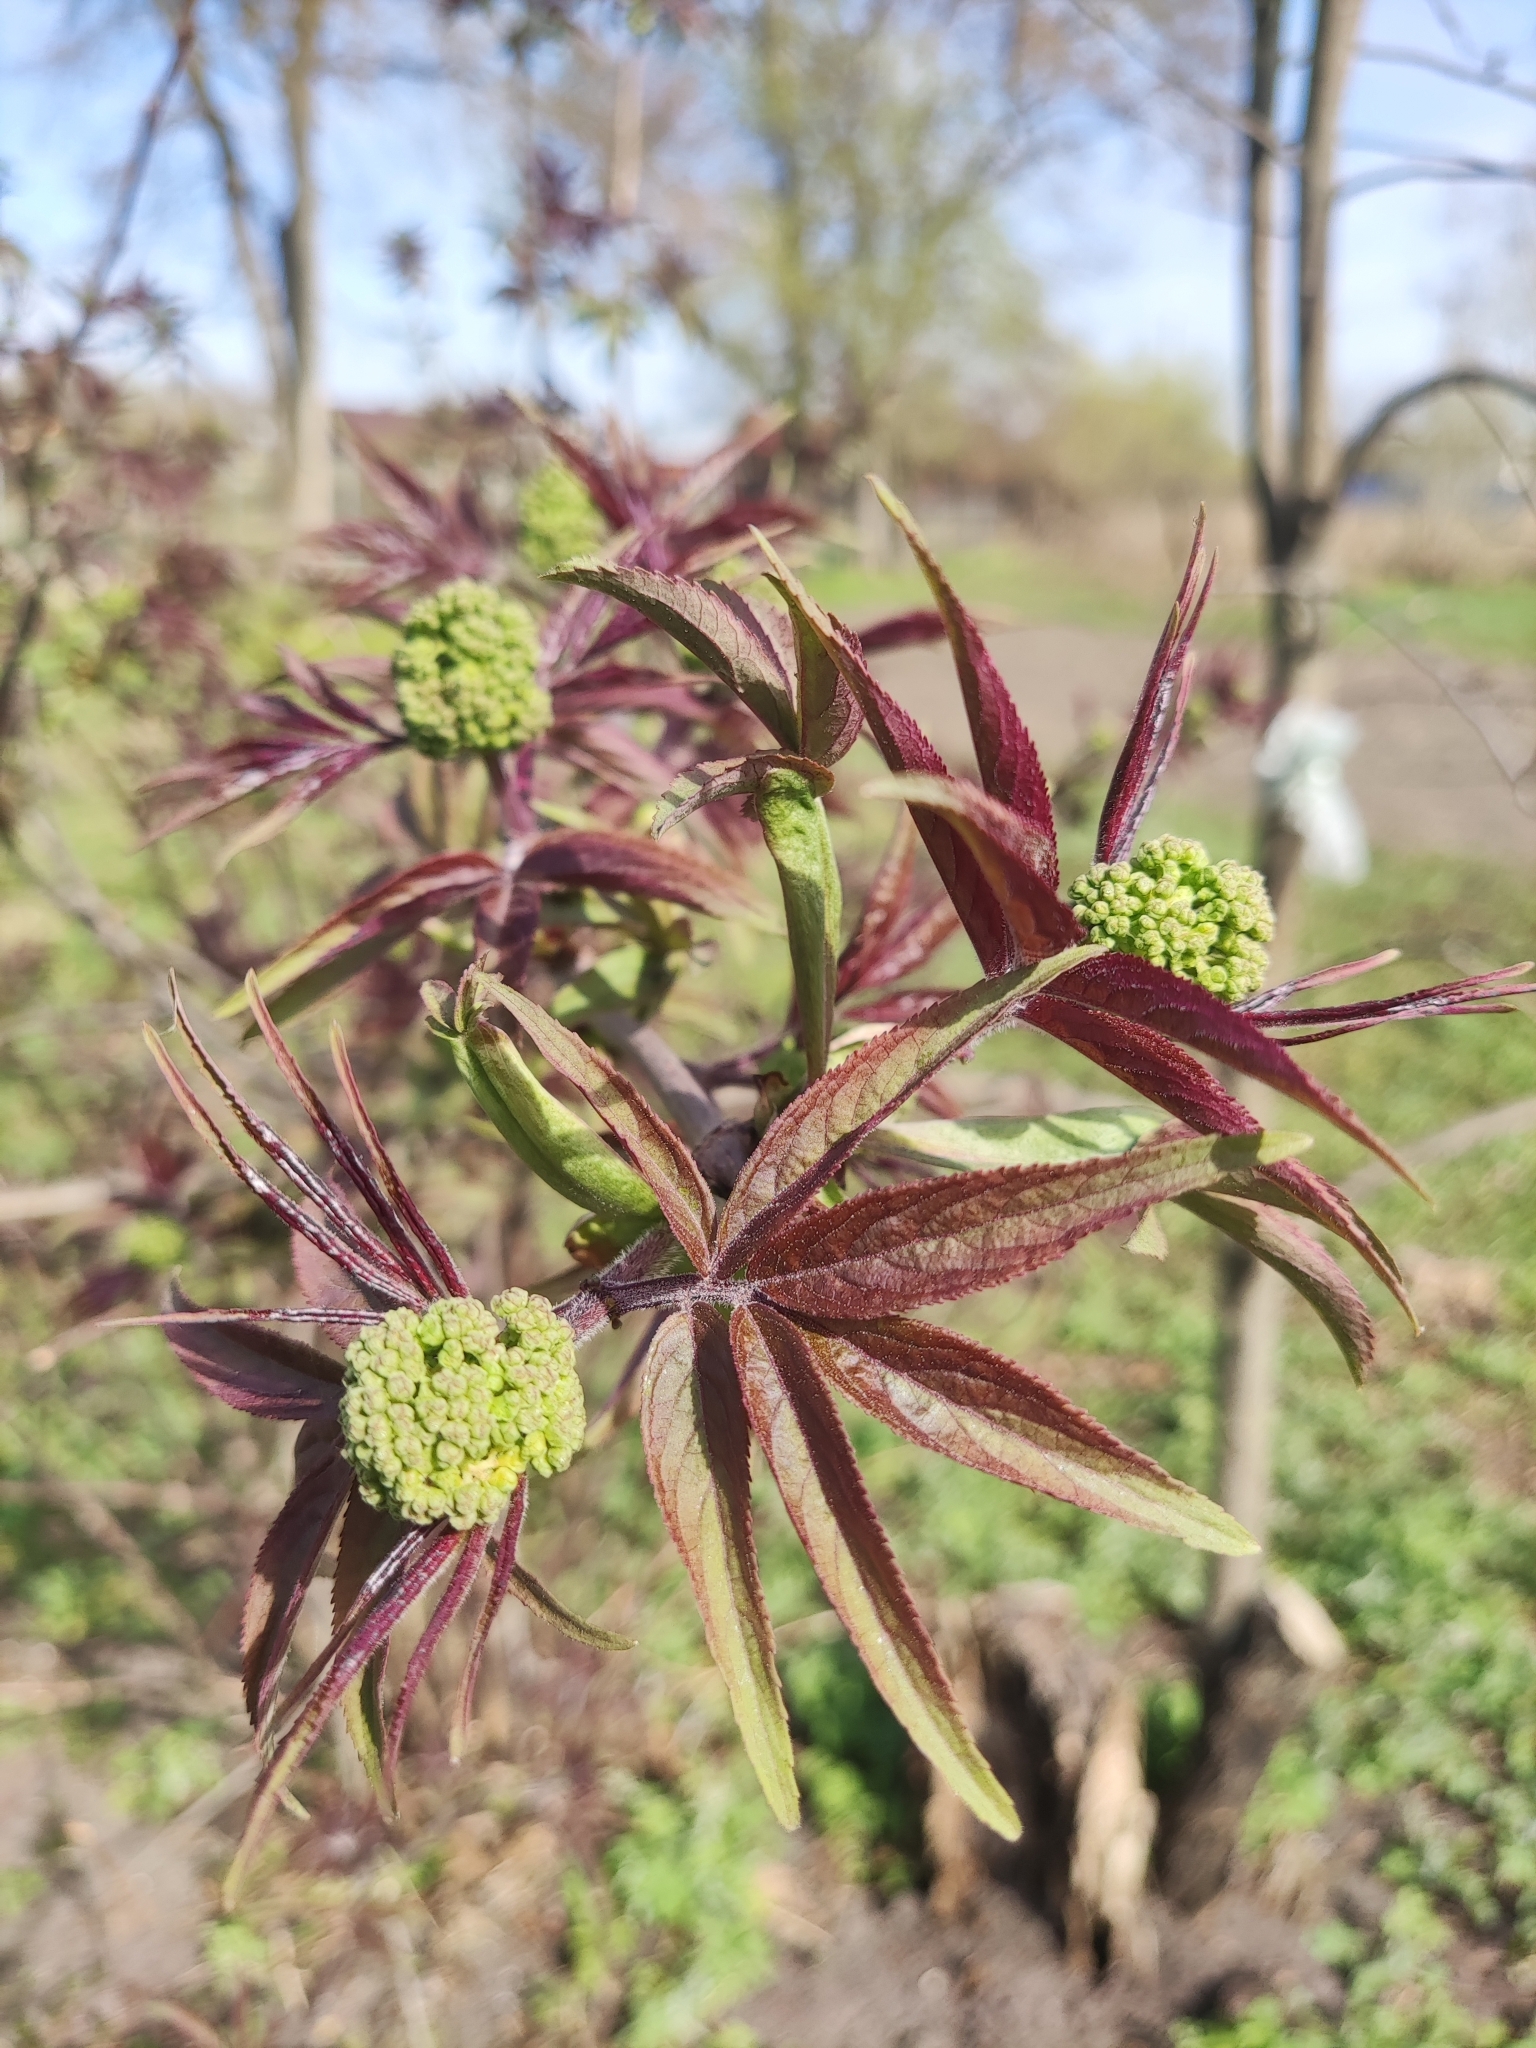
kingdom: Plantae
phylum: Tracheophyta
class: Magnoliopsida
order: Dipsacales
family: Viburnaceae
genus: Sambucus
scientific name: Sambucus racemosa
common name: Red-berried elder
